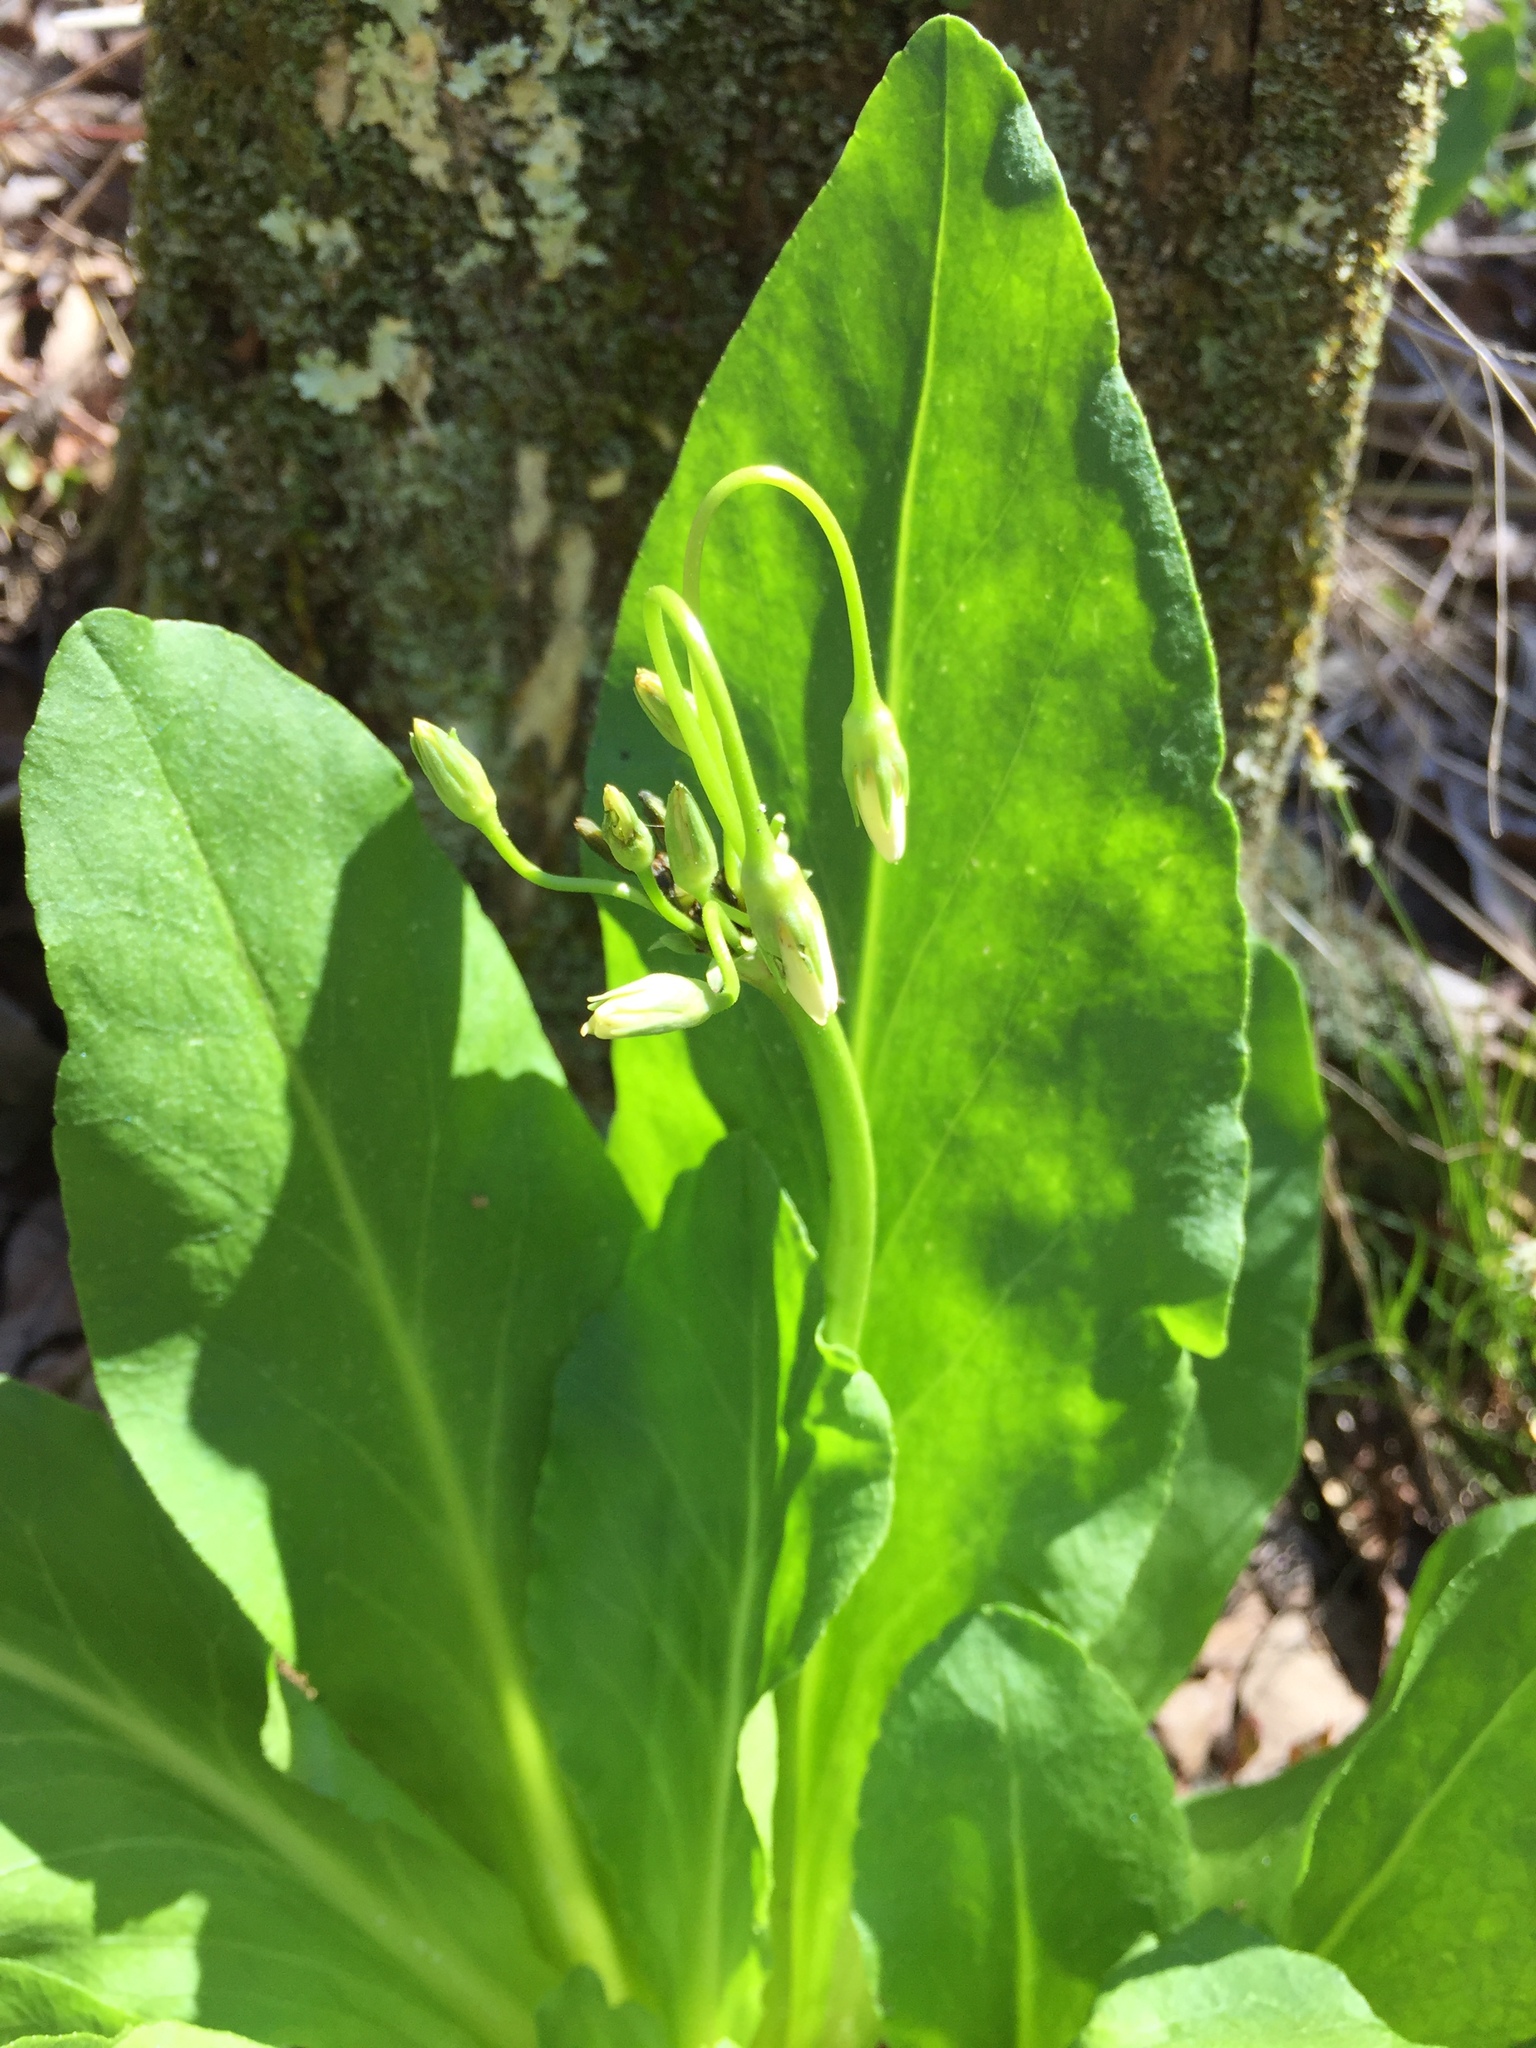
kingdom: Plantae
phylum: Tracheophyta
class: Magnoliopsida
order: Ericales
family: Primulaceae
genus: Dodecatheon
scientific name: Dodecatheon meadia
